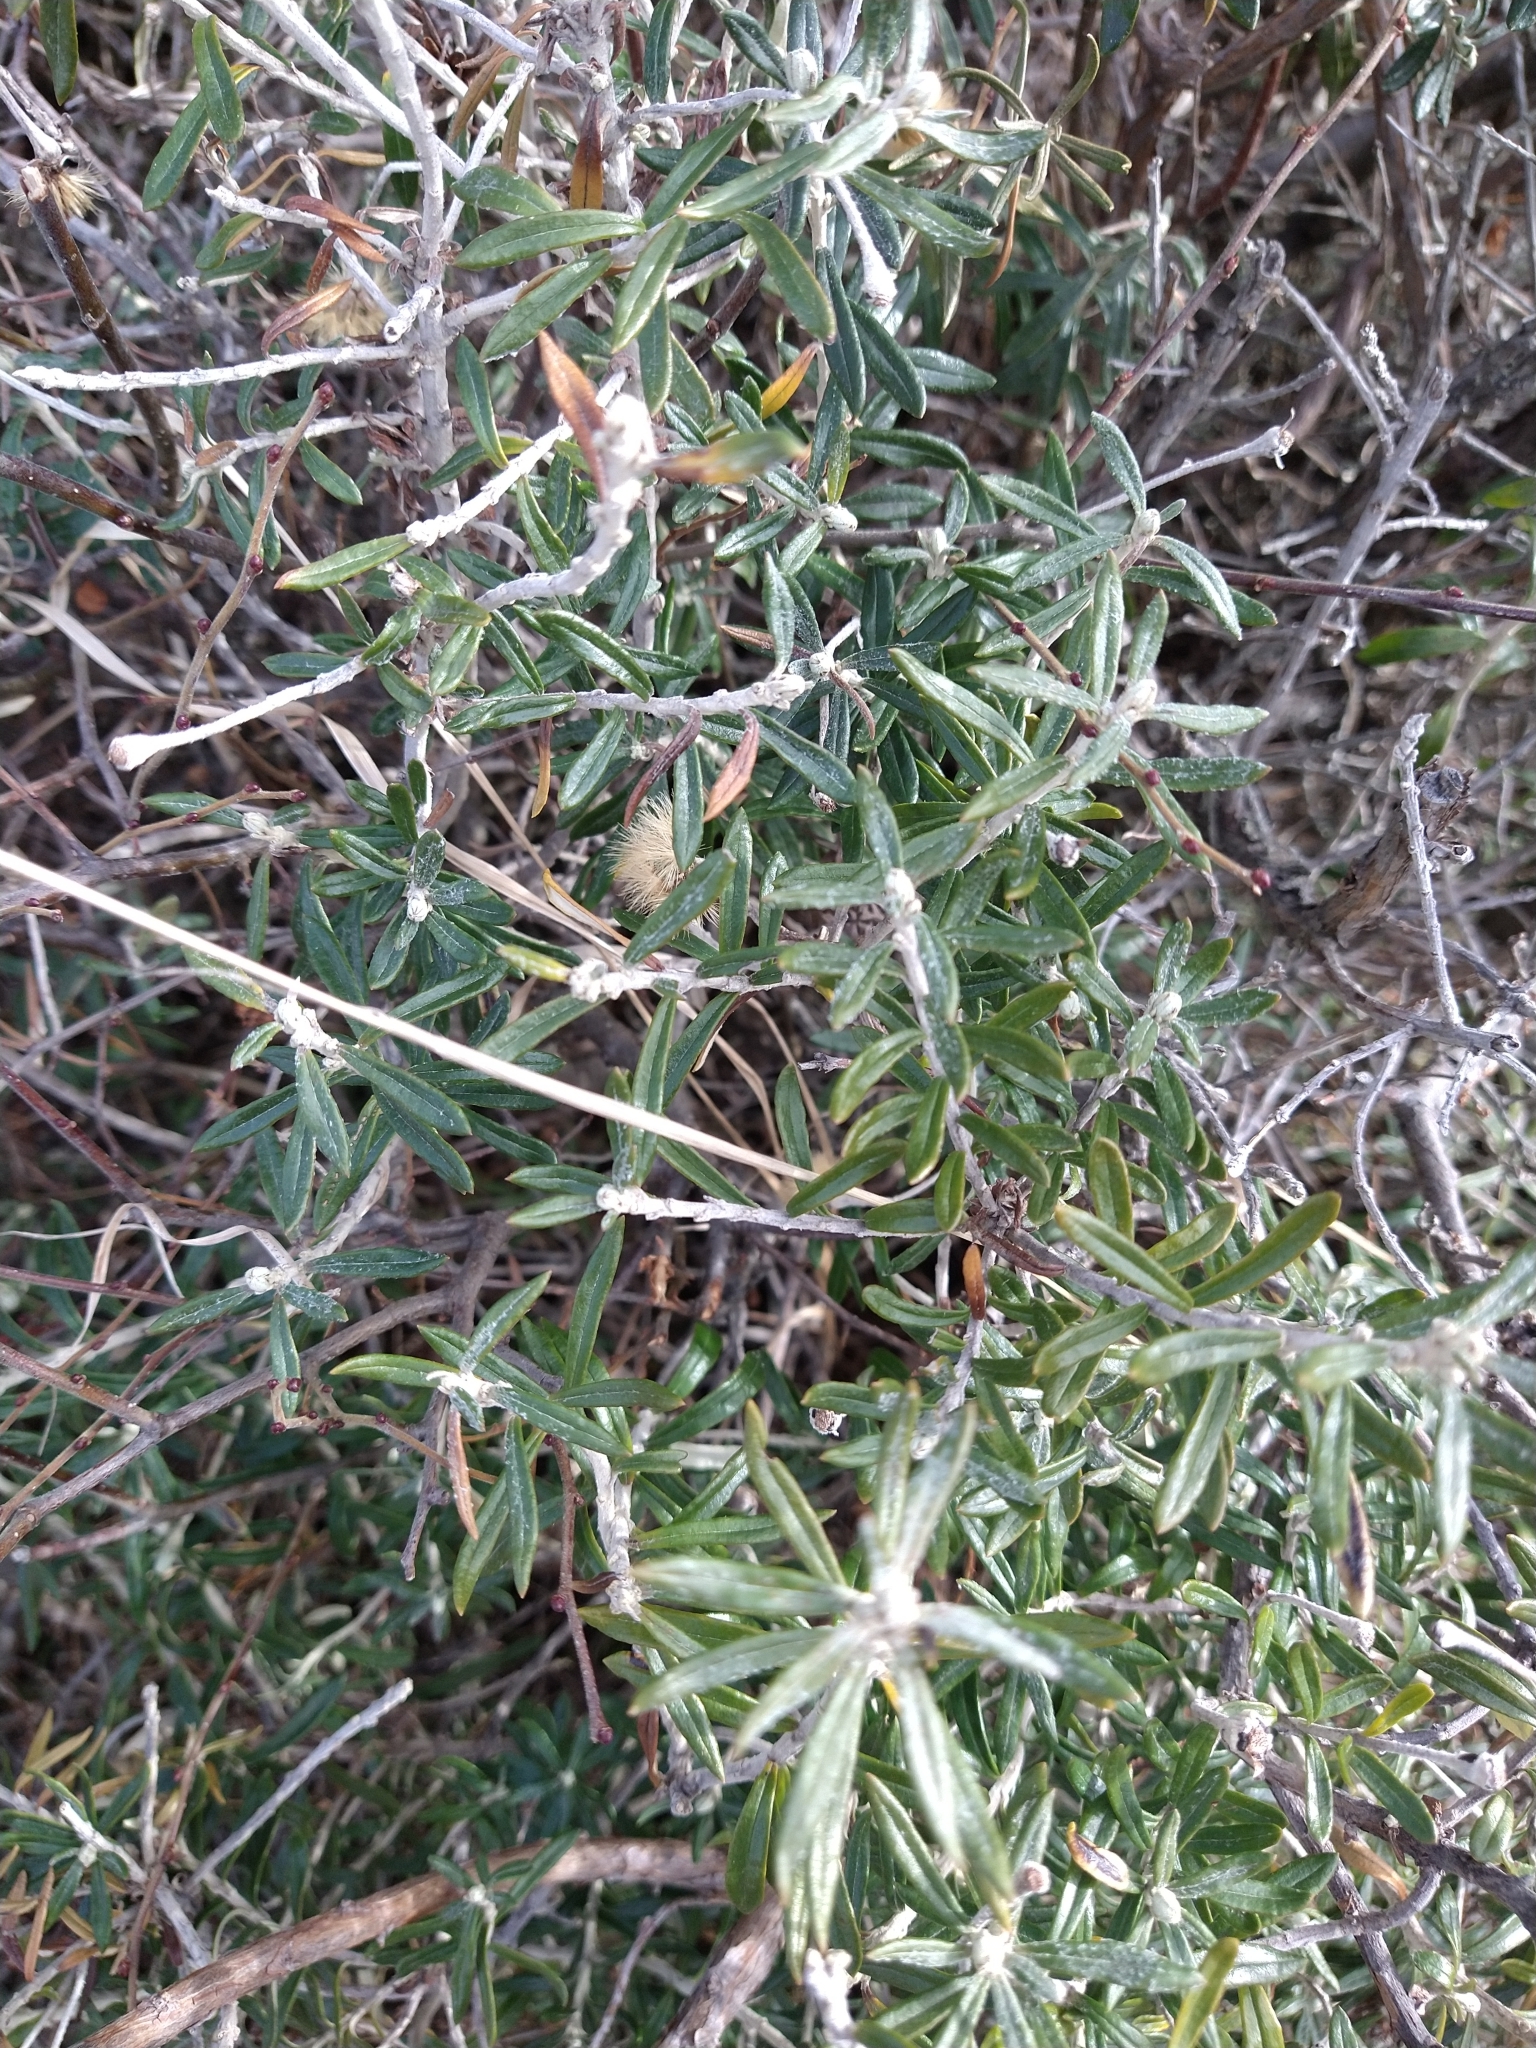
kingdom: Plantae
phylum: Tracheophyta
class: Magnoliopsida
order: Asterales
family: Asteraceae
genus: Chiliotrichum
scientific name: Chiliotrichum diffusum
